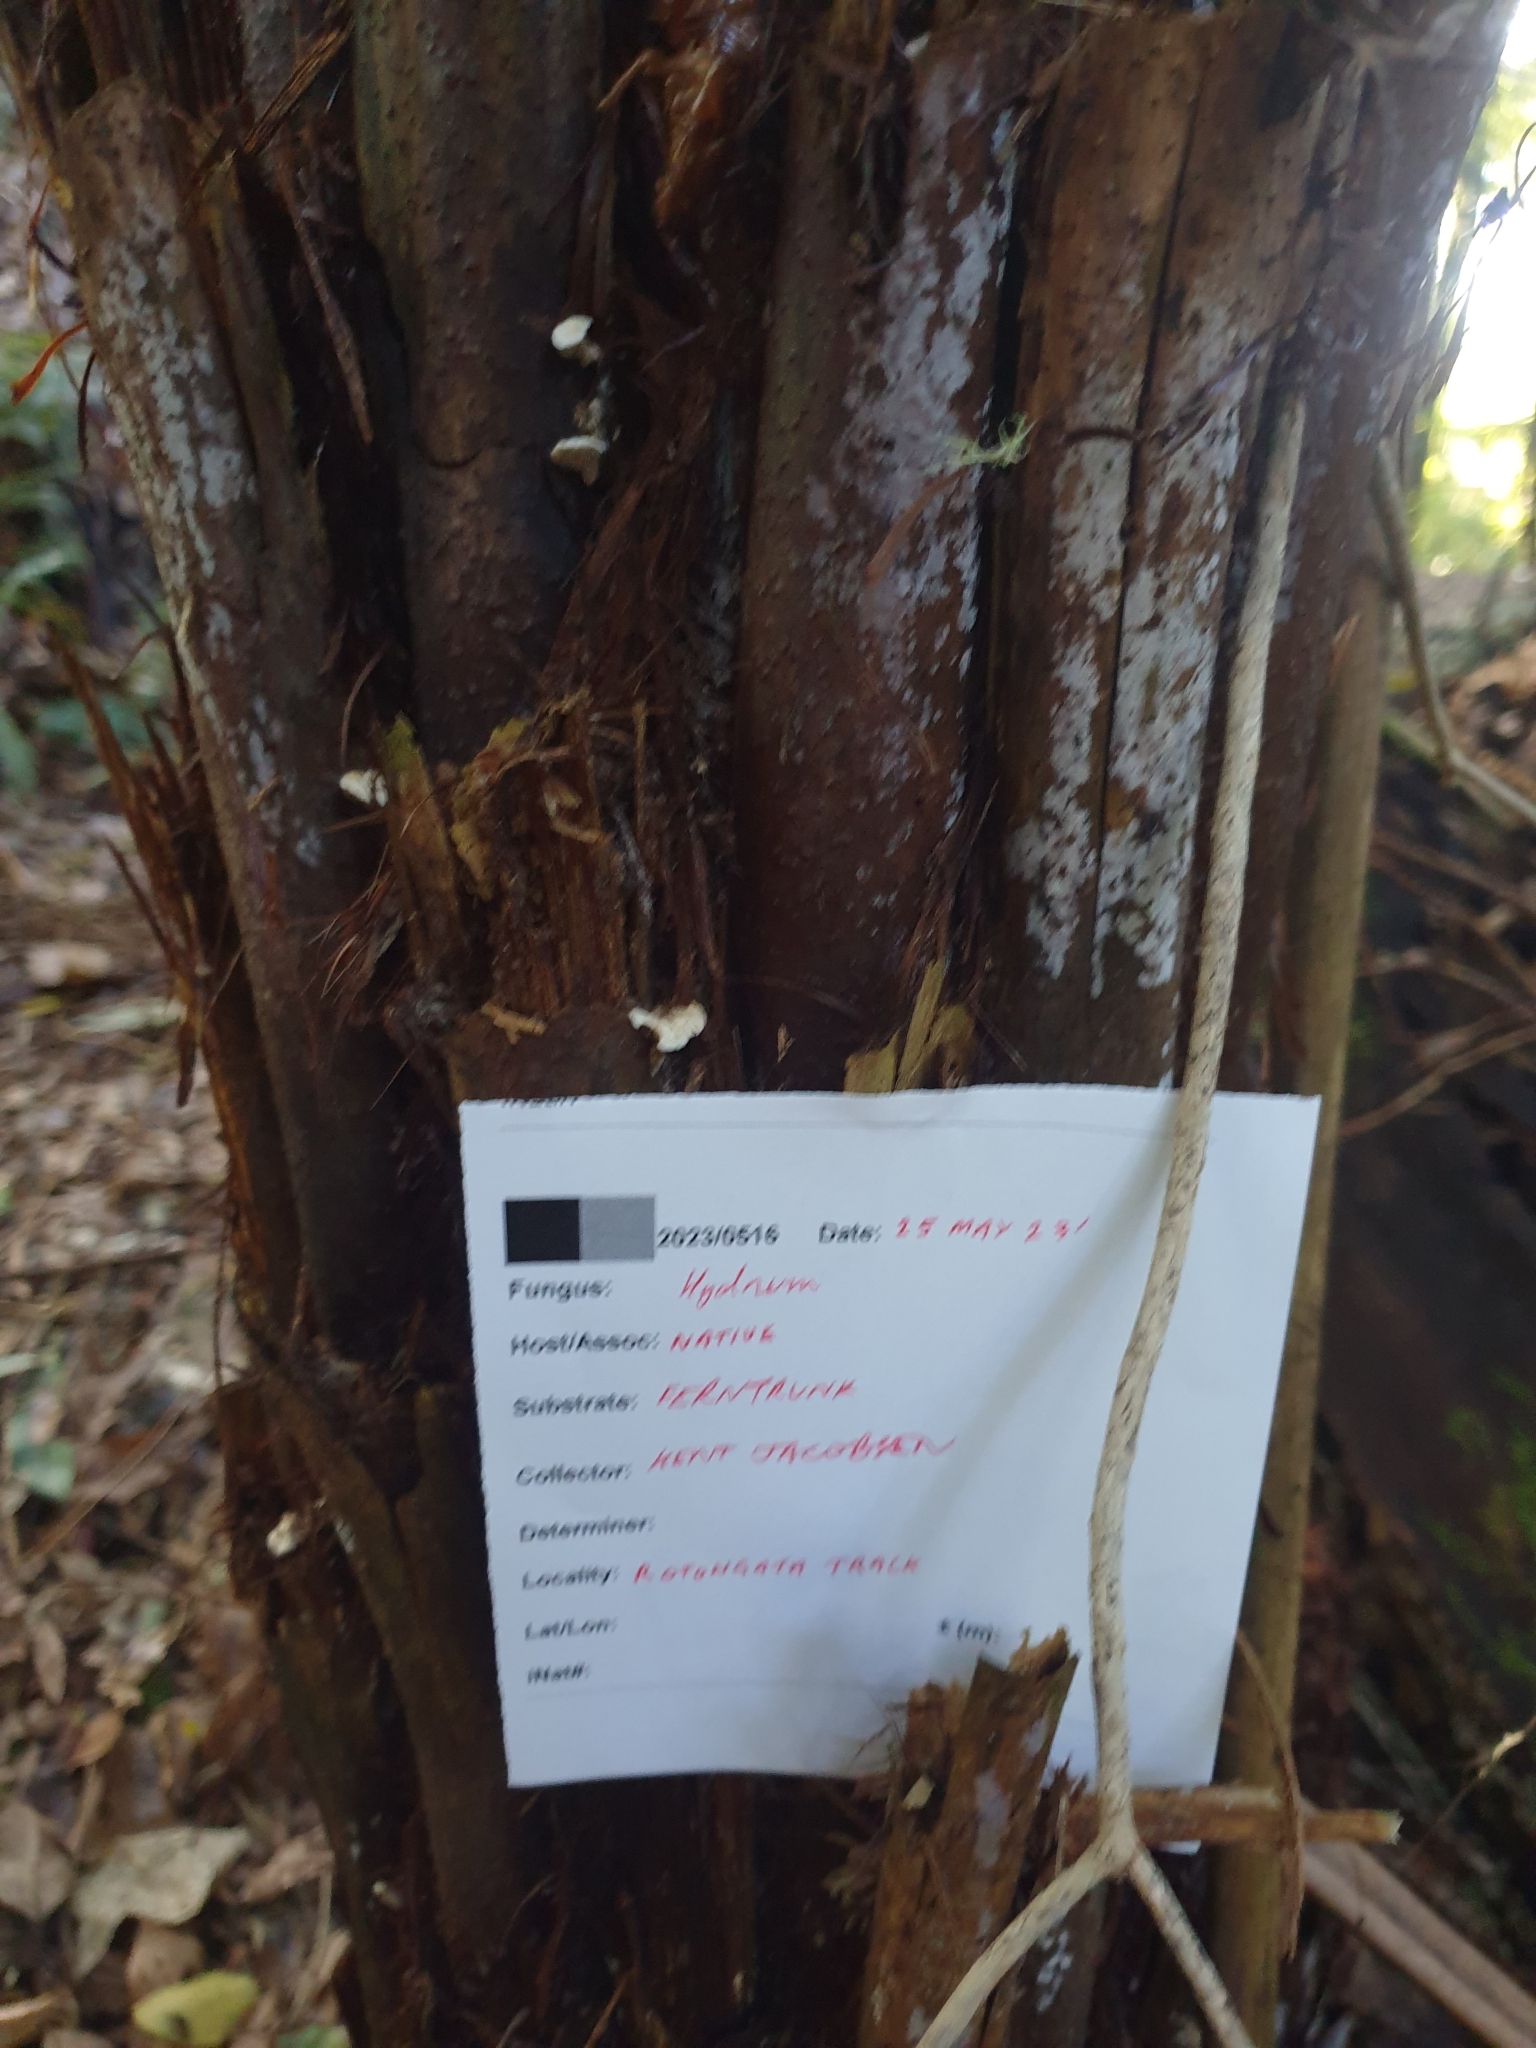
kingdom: Fungi
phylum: Basidiomycota
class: Agaricomycetes
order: Gomphales
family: Clavariadelphaceae
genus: Beenakia
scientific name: Beenakia dacostae
